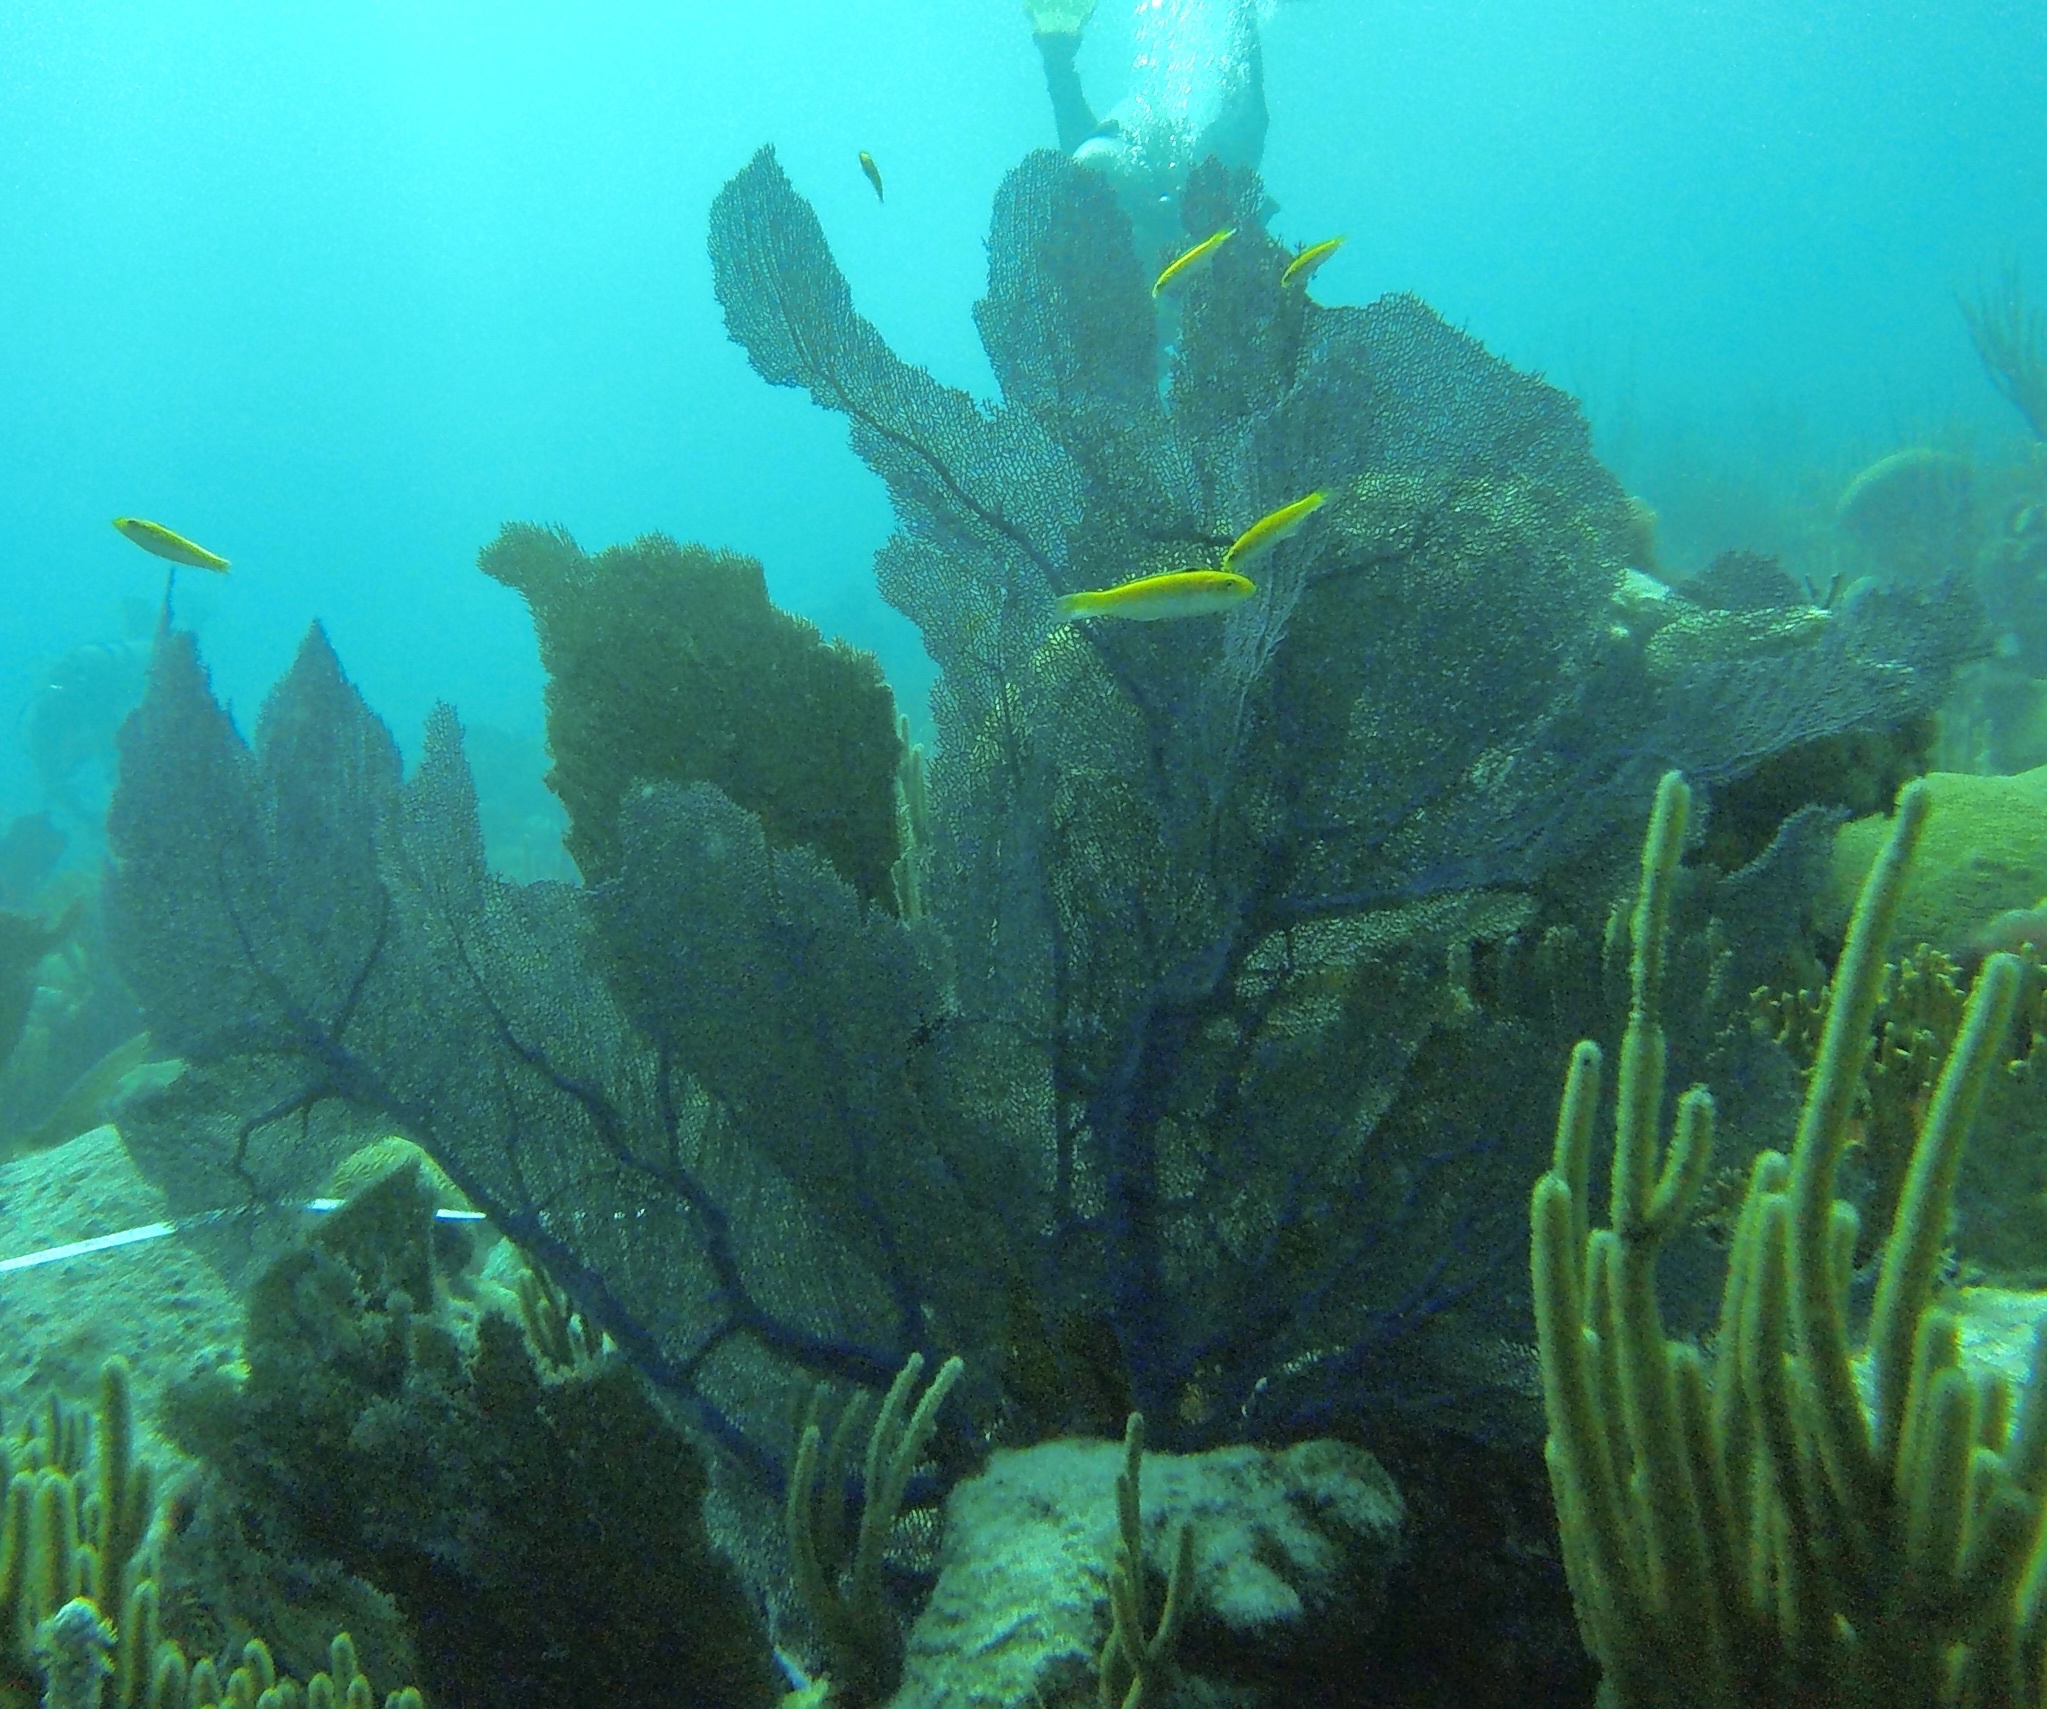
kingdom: Animalia
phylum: Cnidaria
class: Anthozoa
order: Malacalcyonacea
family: Gorgoniidae
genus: Gorgonia
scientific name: Gorgonia ventalina
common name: Common sea fan
